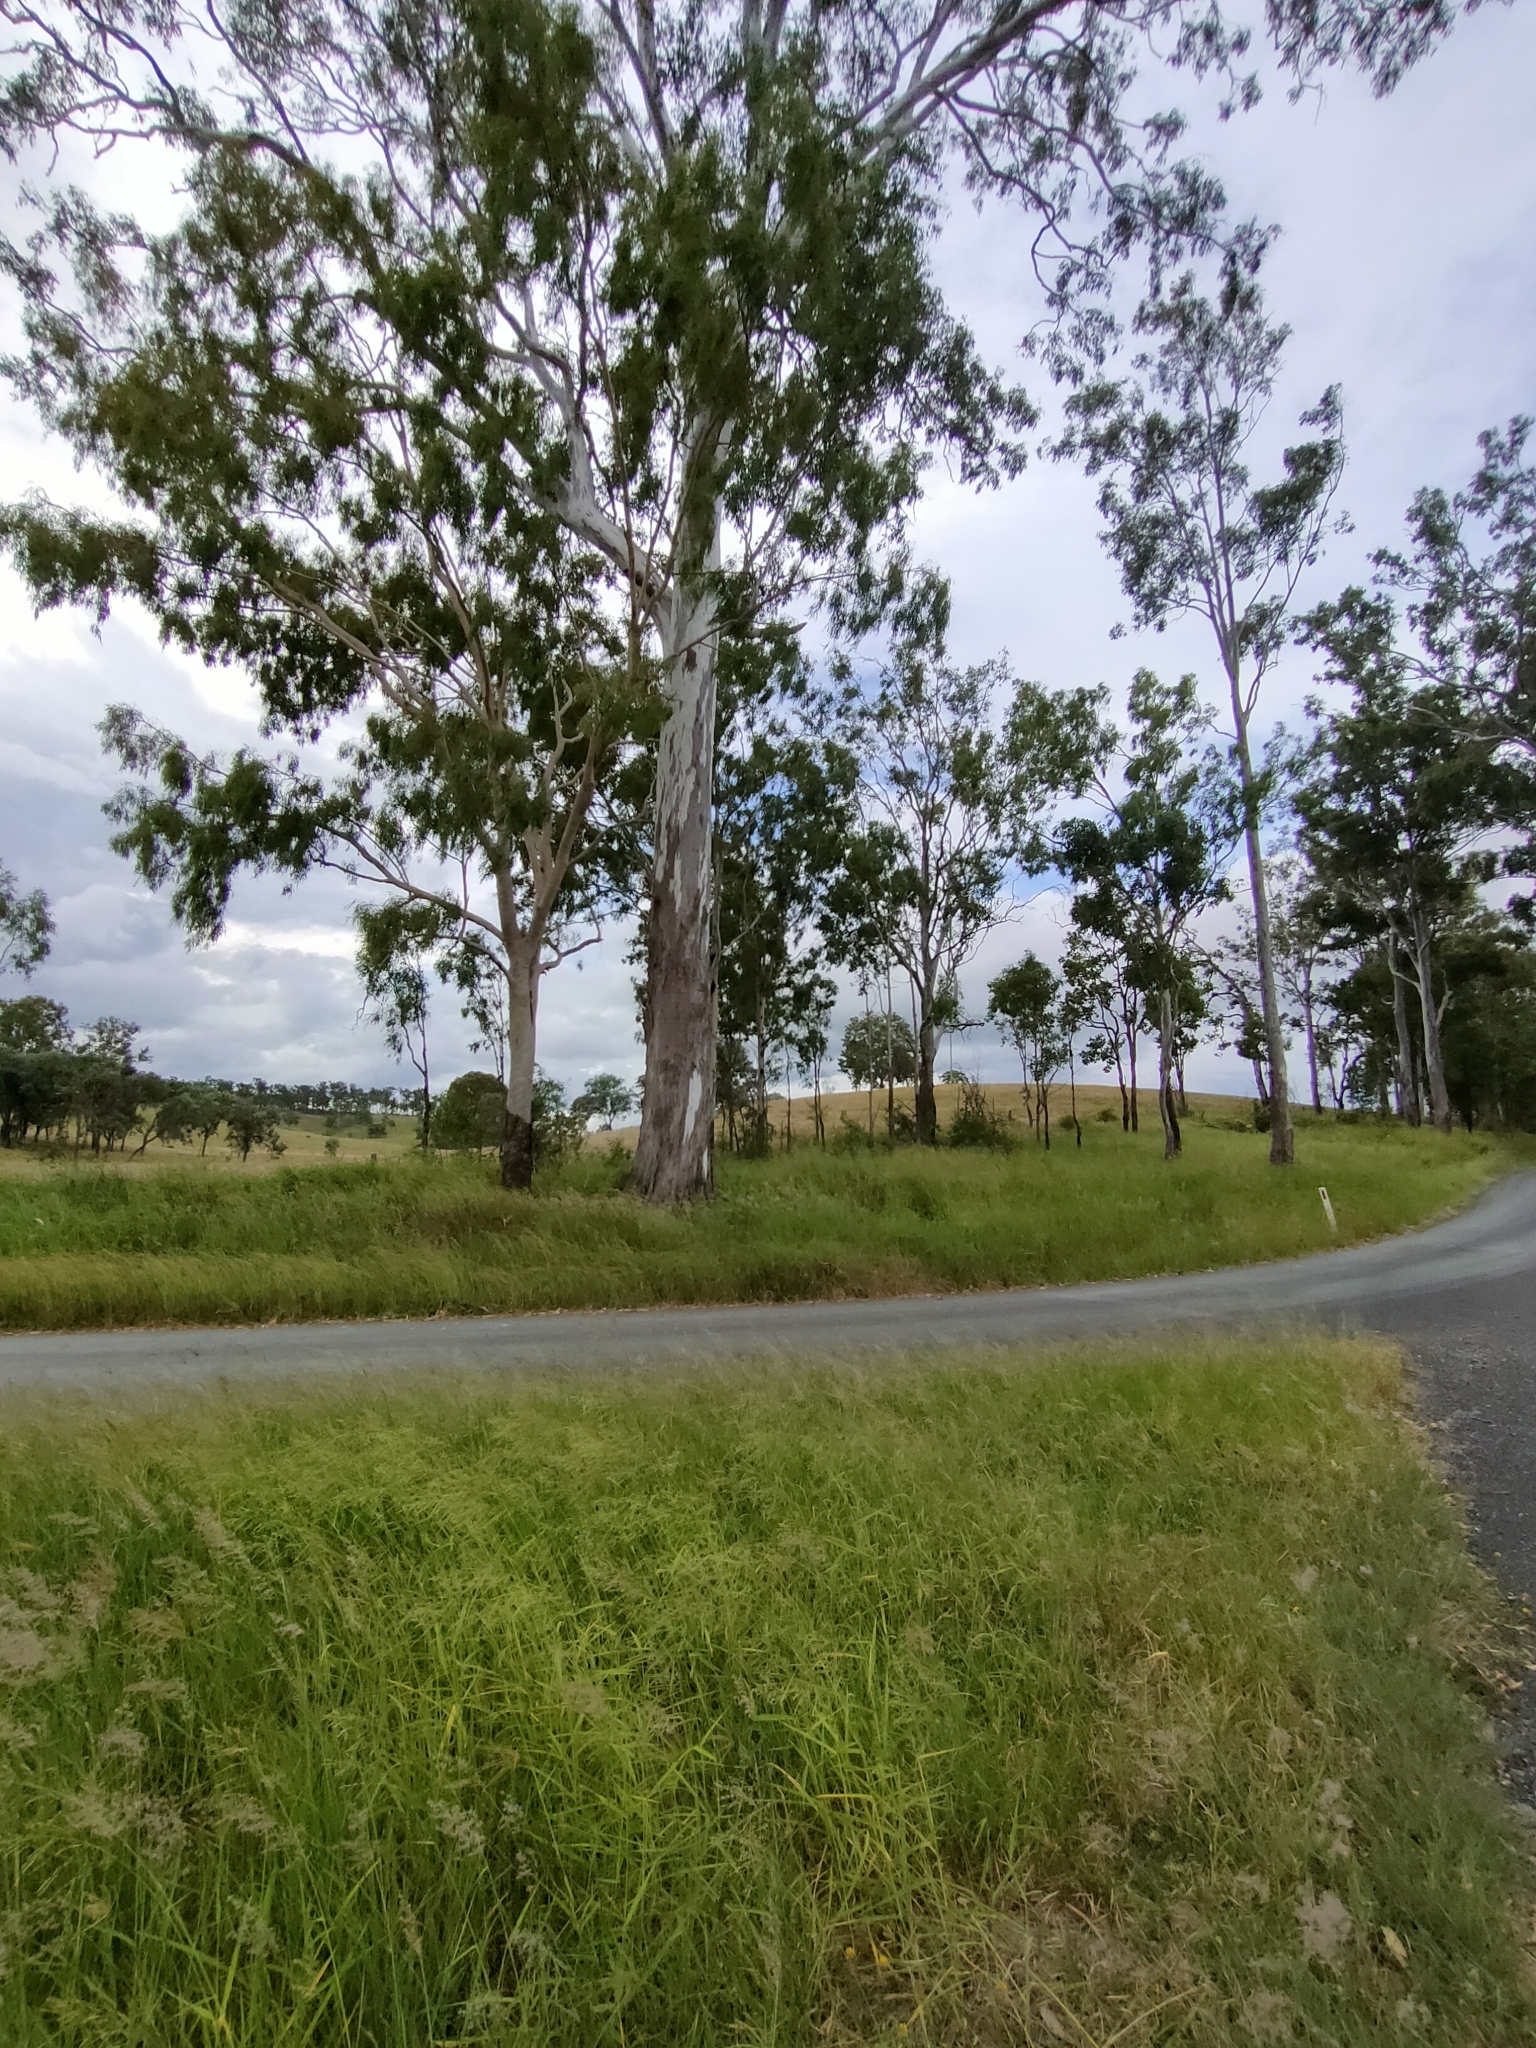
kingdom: Plantae
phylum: Tracheophyta
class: Magnoliopsida
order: Myrtales
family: Myrtaceae
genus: Corymbia
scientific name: Corymbia tessellaris
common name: Carbeen
